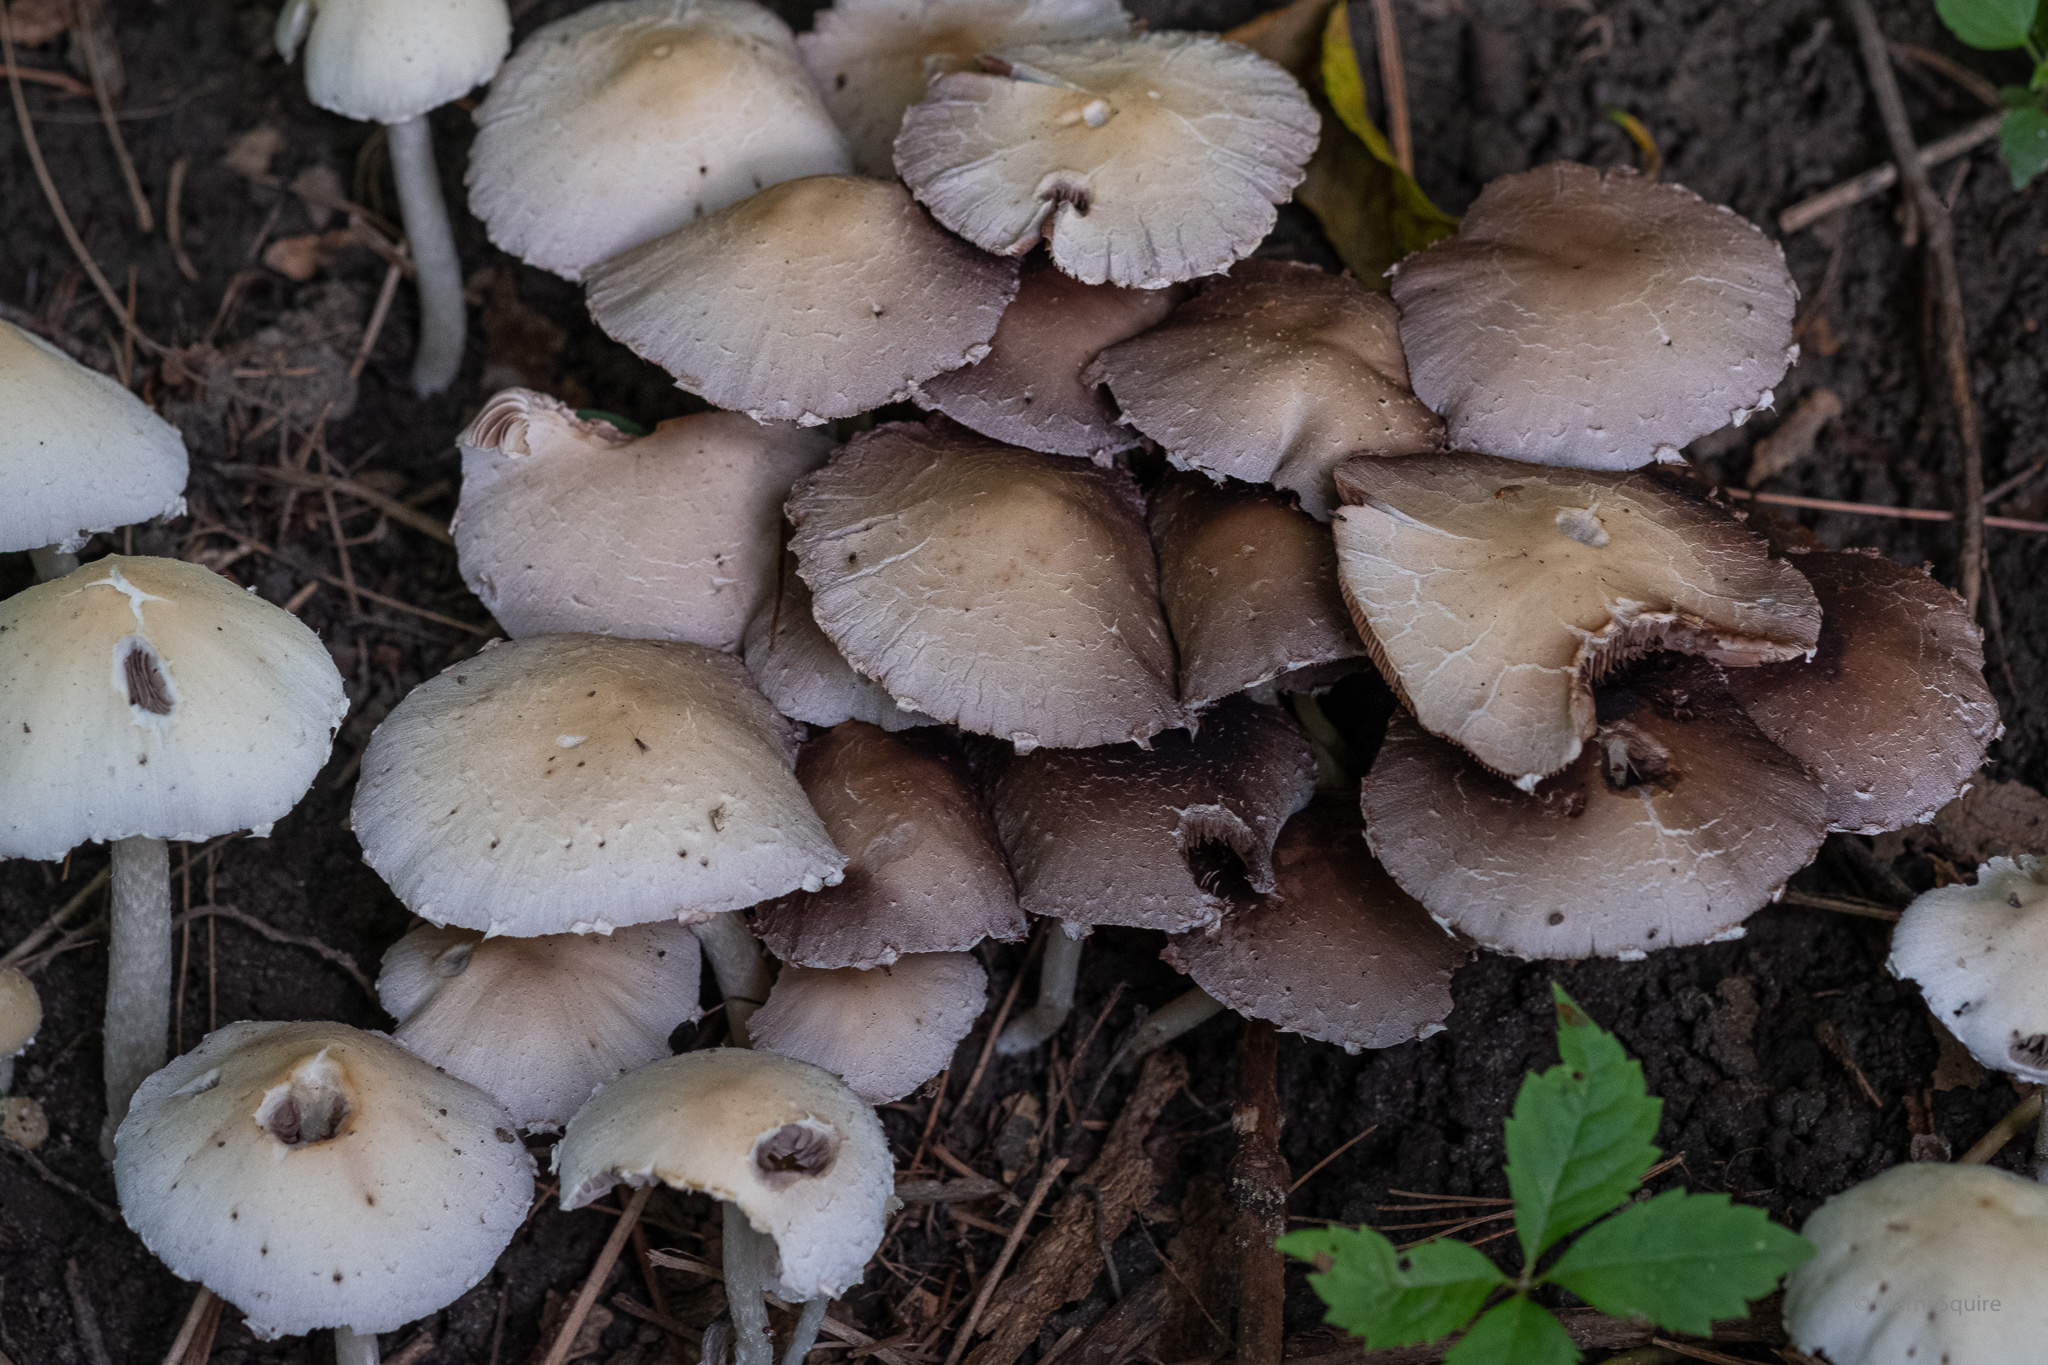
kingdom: Fungi
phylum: Basidiomycota
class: Agaricomycetes
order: Agaricales
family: Psathyrellaceae
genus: Candolleomyces
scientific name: Candolleomyces candolleanus
